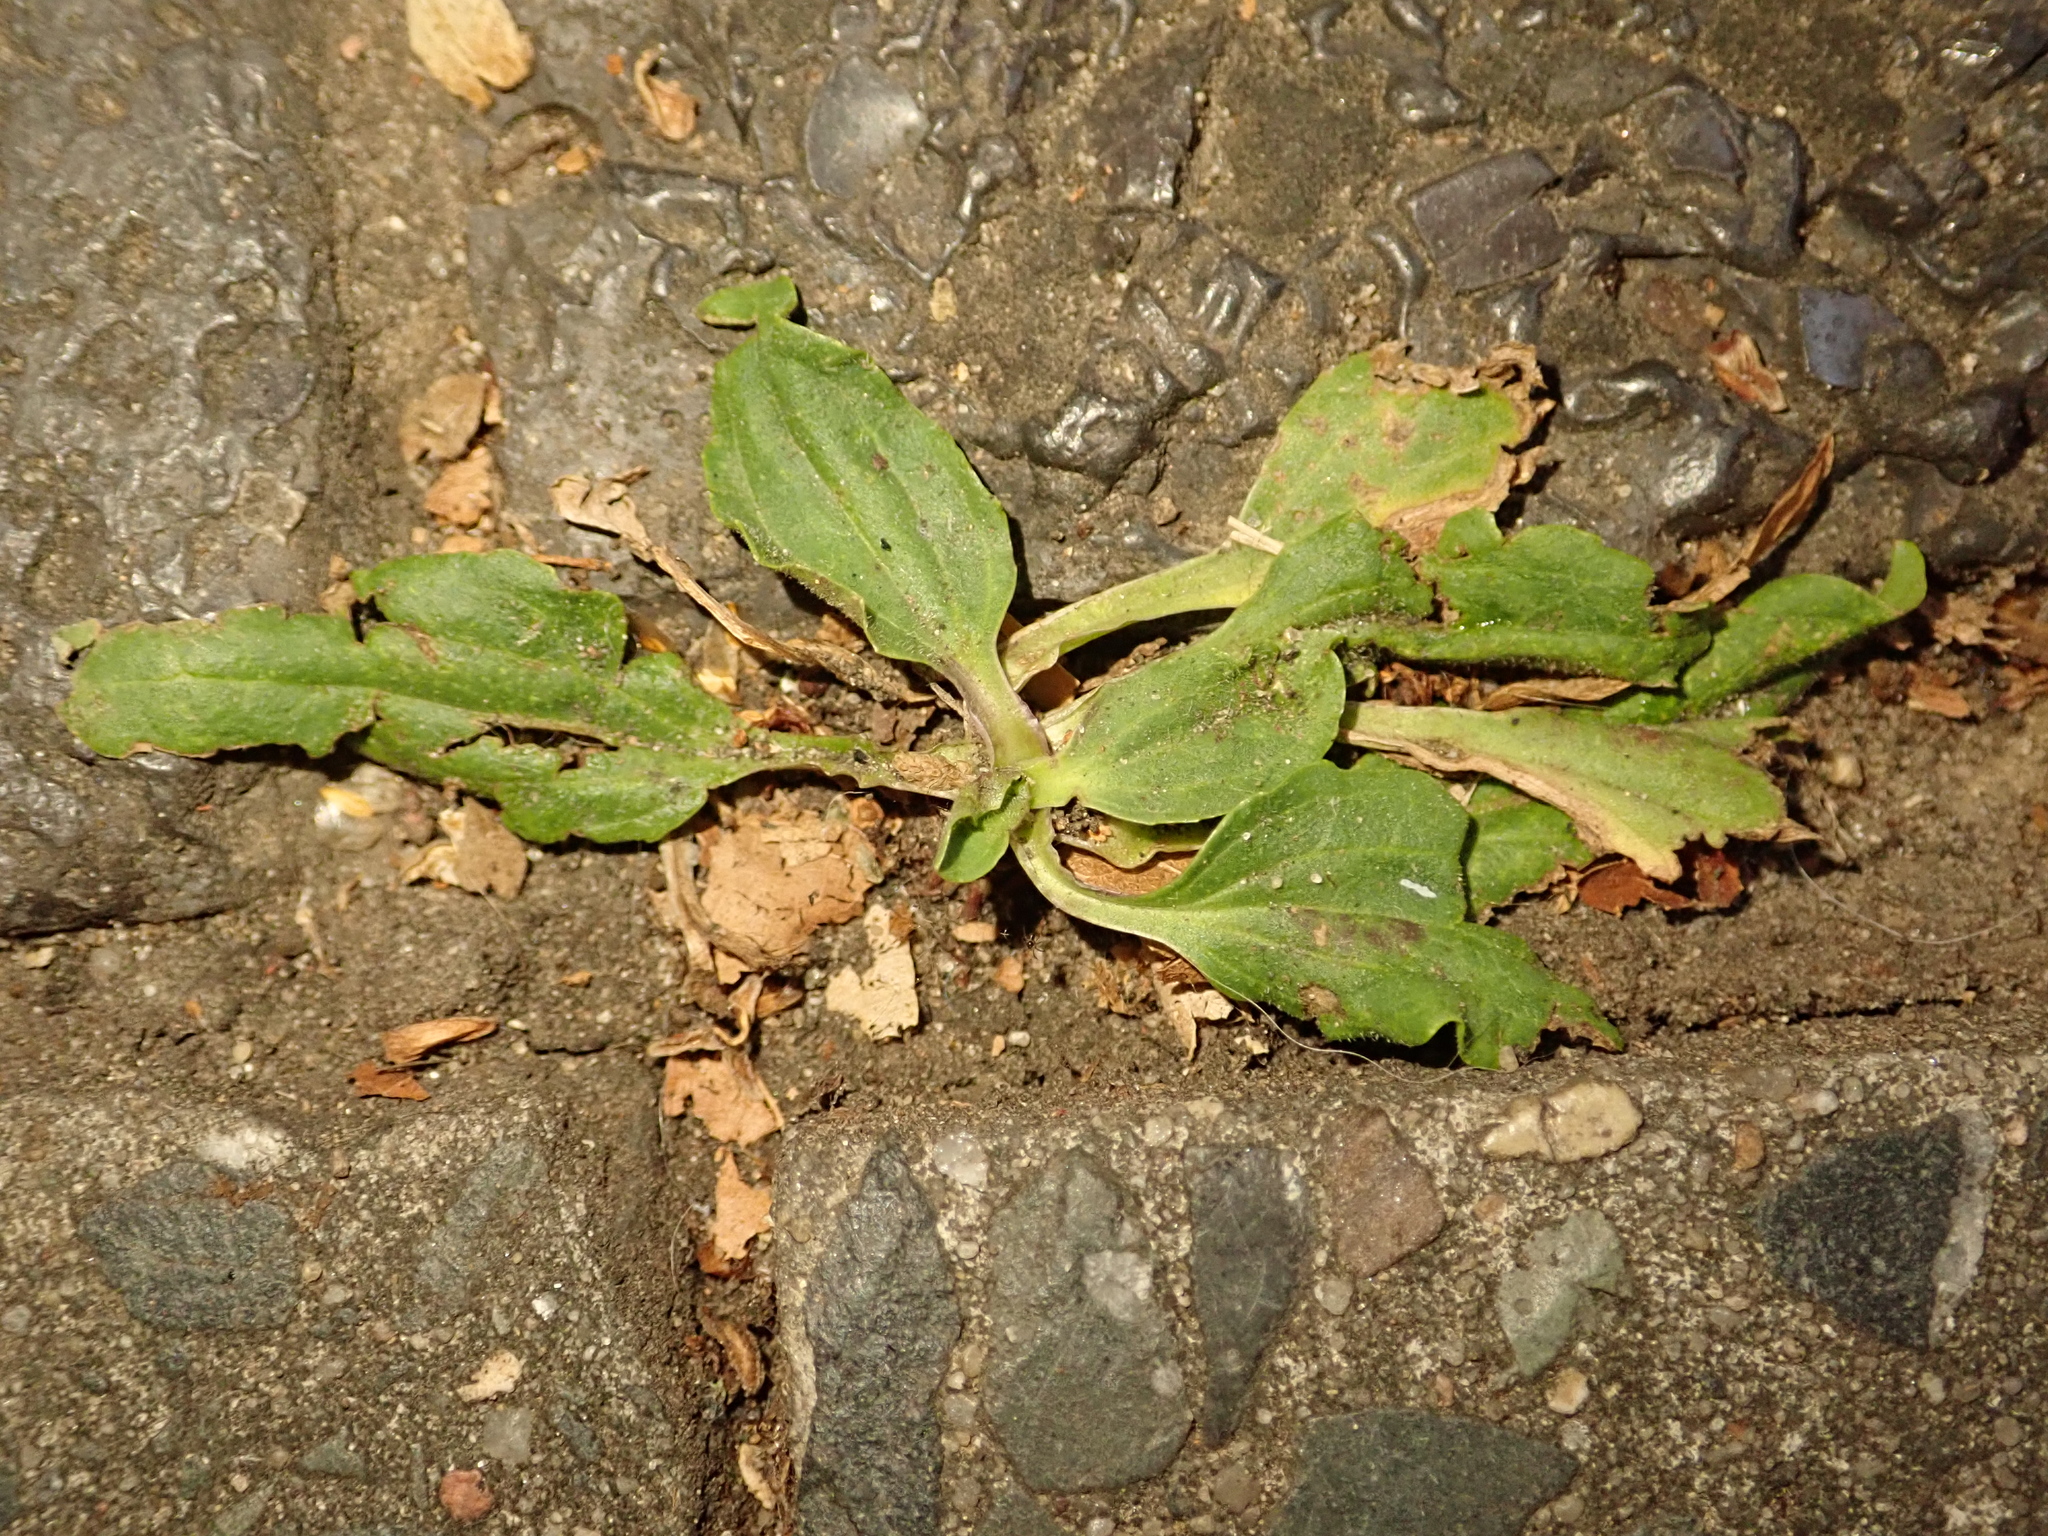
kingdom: Plantae
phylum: Tracheophyta
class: Magnoliopsida
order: Lamiales
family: Plantaginaceae
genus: Plantago
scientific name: Plantago uliginosa
